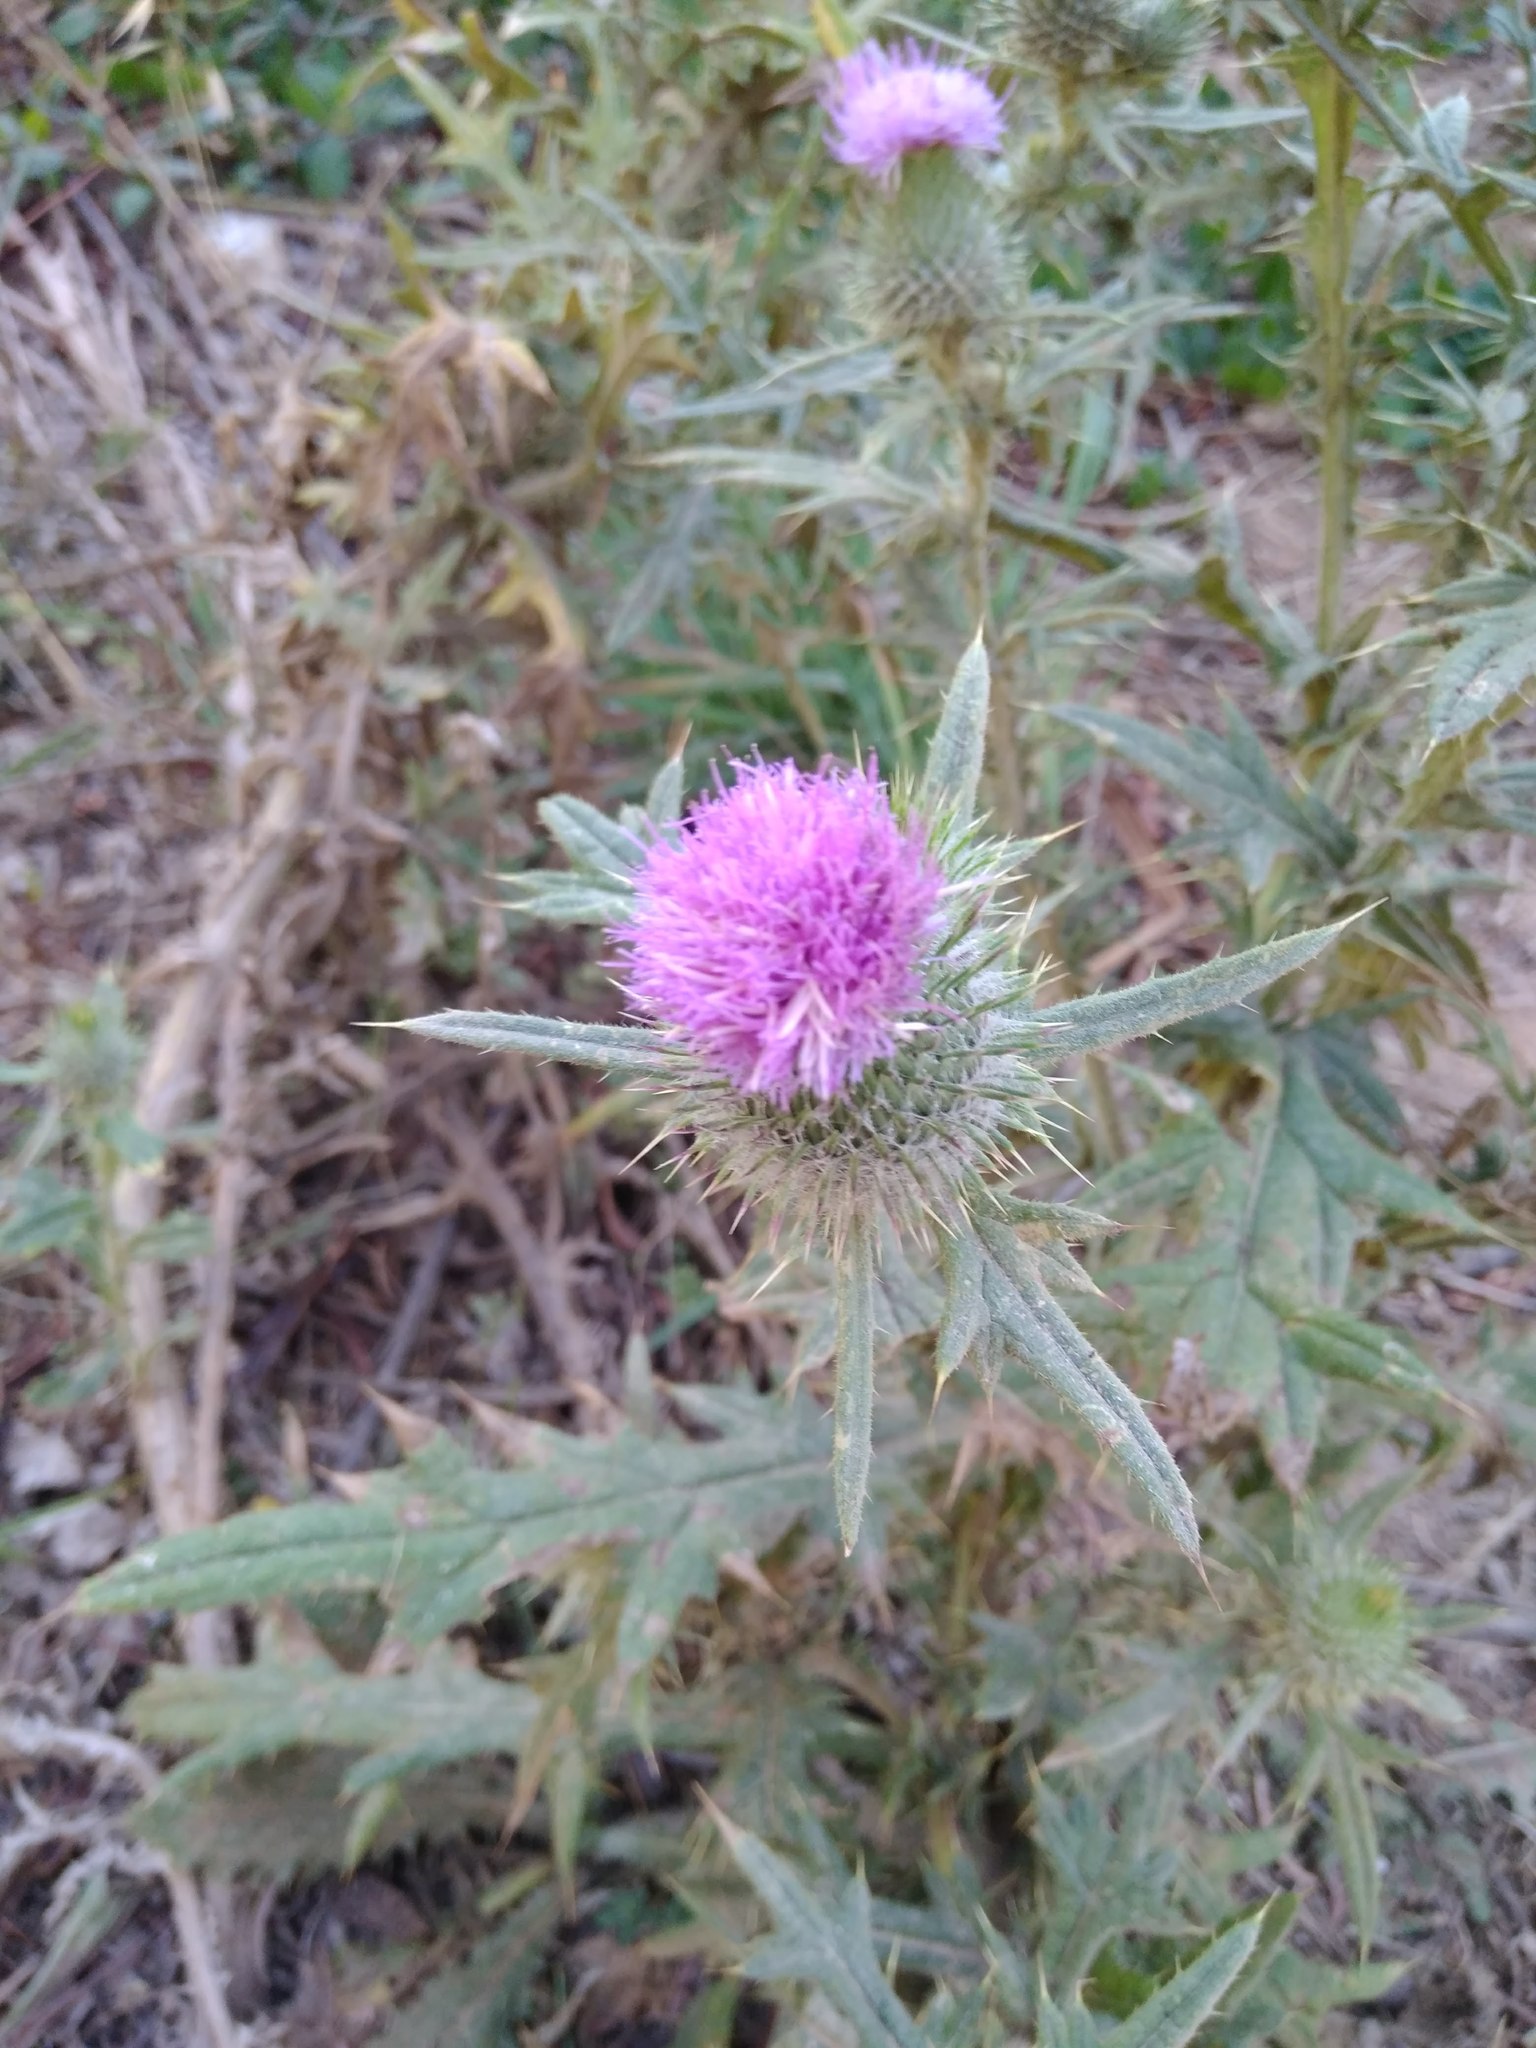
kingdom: Plantae
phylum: Tracheophyta
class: Magnoliopsida
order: Asterales
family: Asteraceae
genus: Cirsium
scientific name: Cirsium vulgare
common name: Bull thistle
